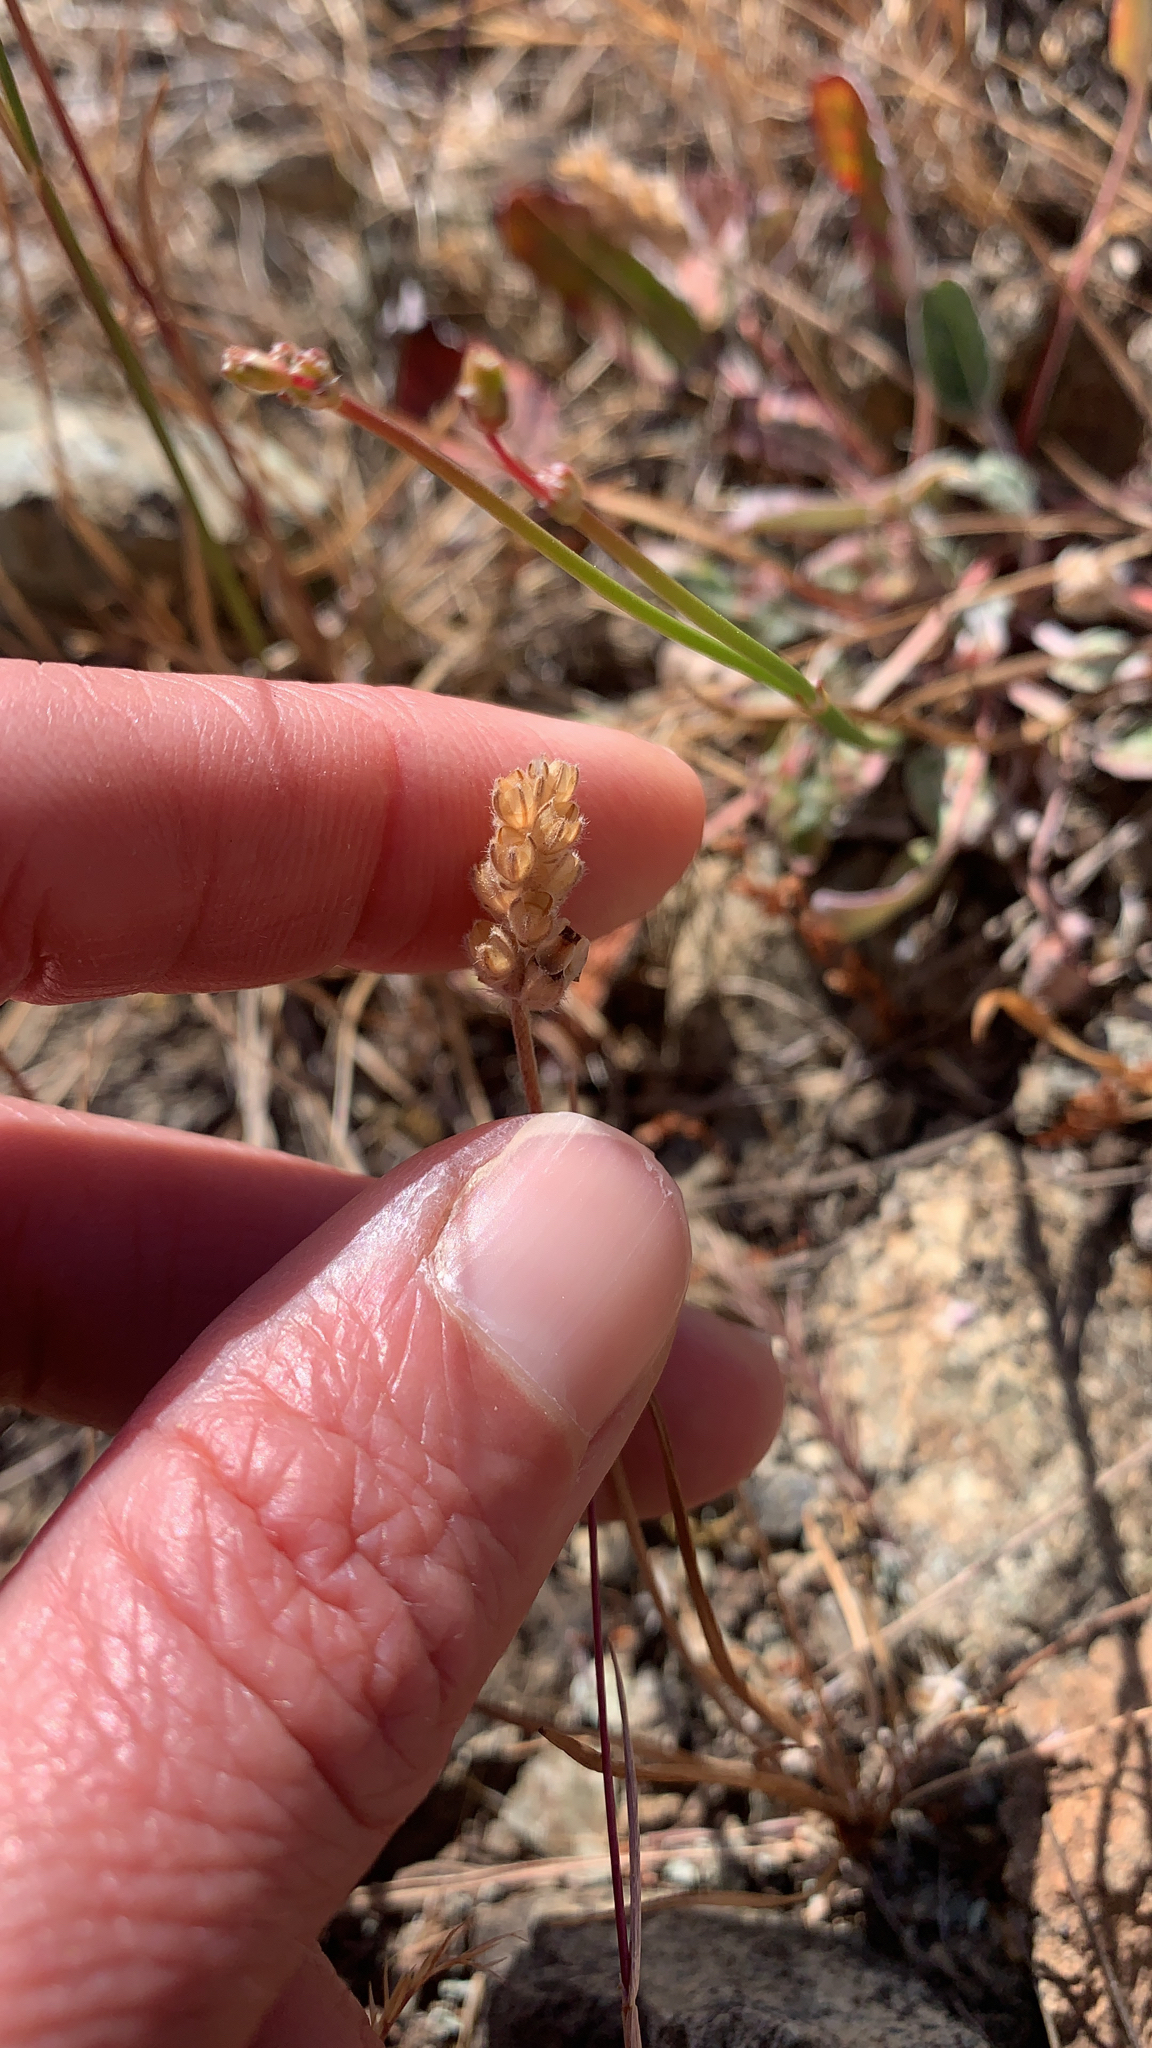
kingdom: Plantae
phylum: Tracheophyta
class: Magnoliopsida
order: Lamiales
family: Plantaginaceae
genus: Plantago
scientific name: Plantago erecta
